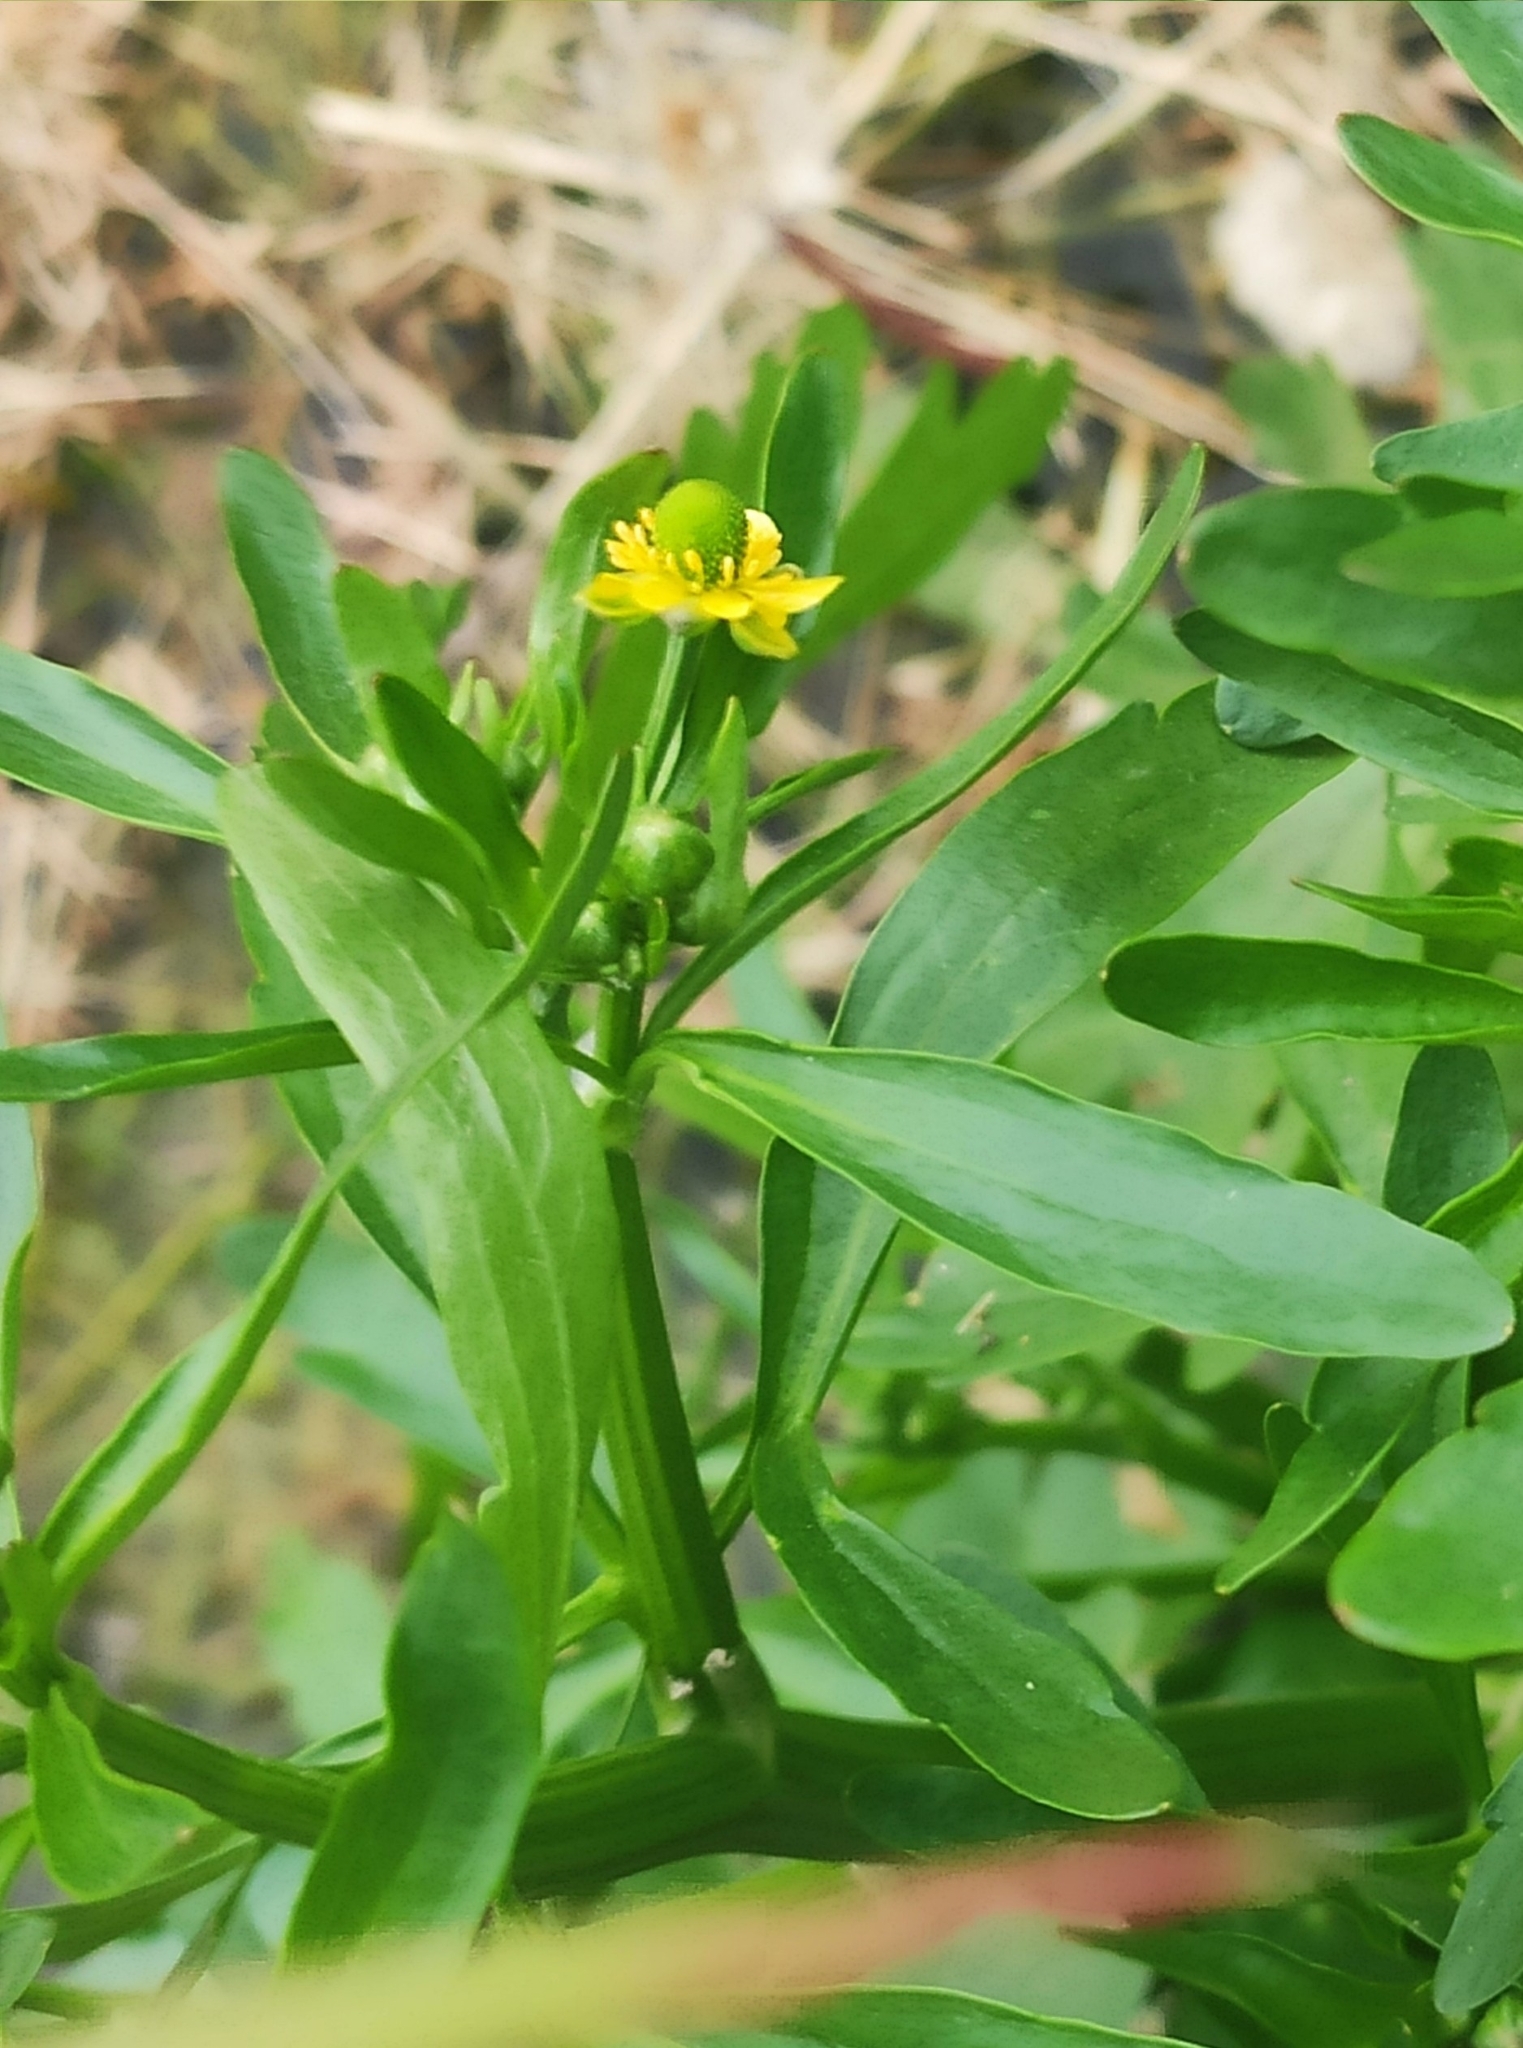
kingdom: Plantae
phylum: Tracheophyta
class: Magnoliopsida
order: Ranunculales
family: Ranunculaceae
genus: Ranunculus
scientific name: Ranunculus sceleratus
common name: Celery-leaved buttercup
